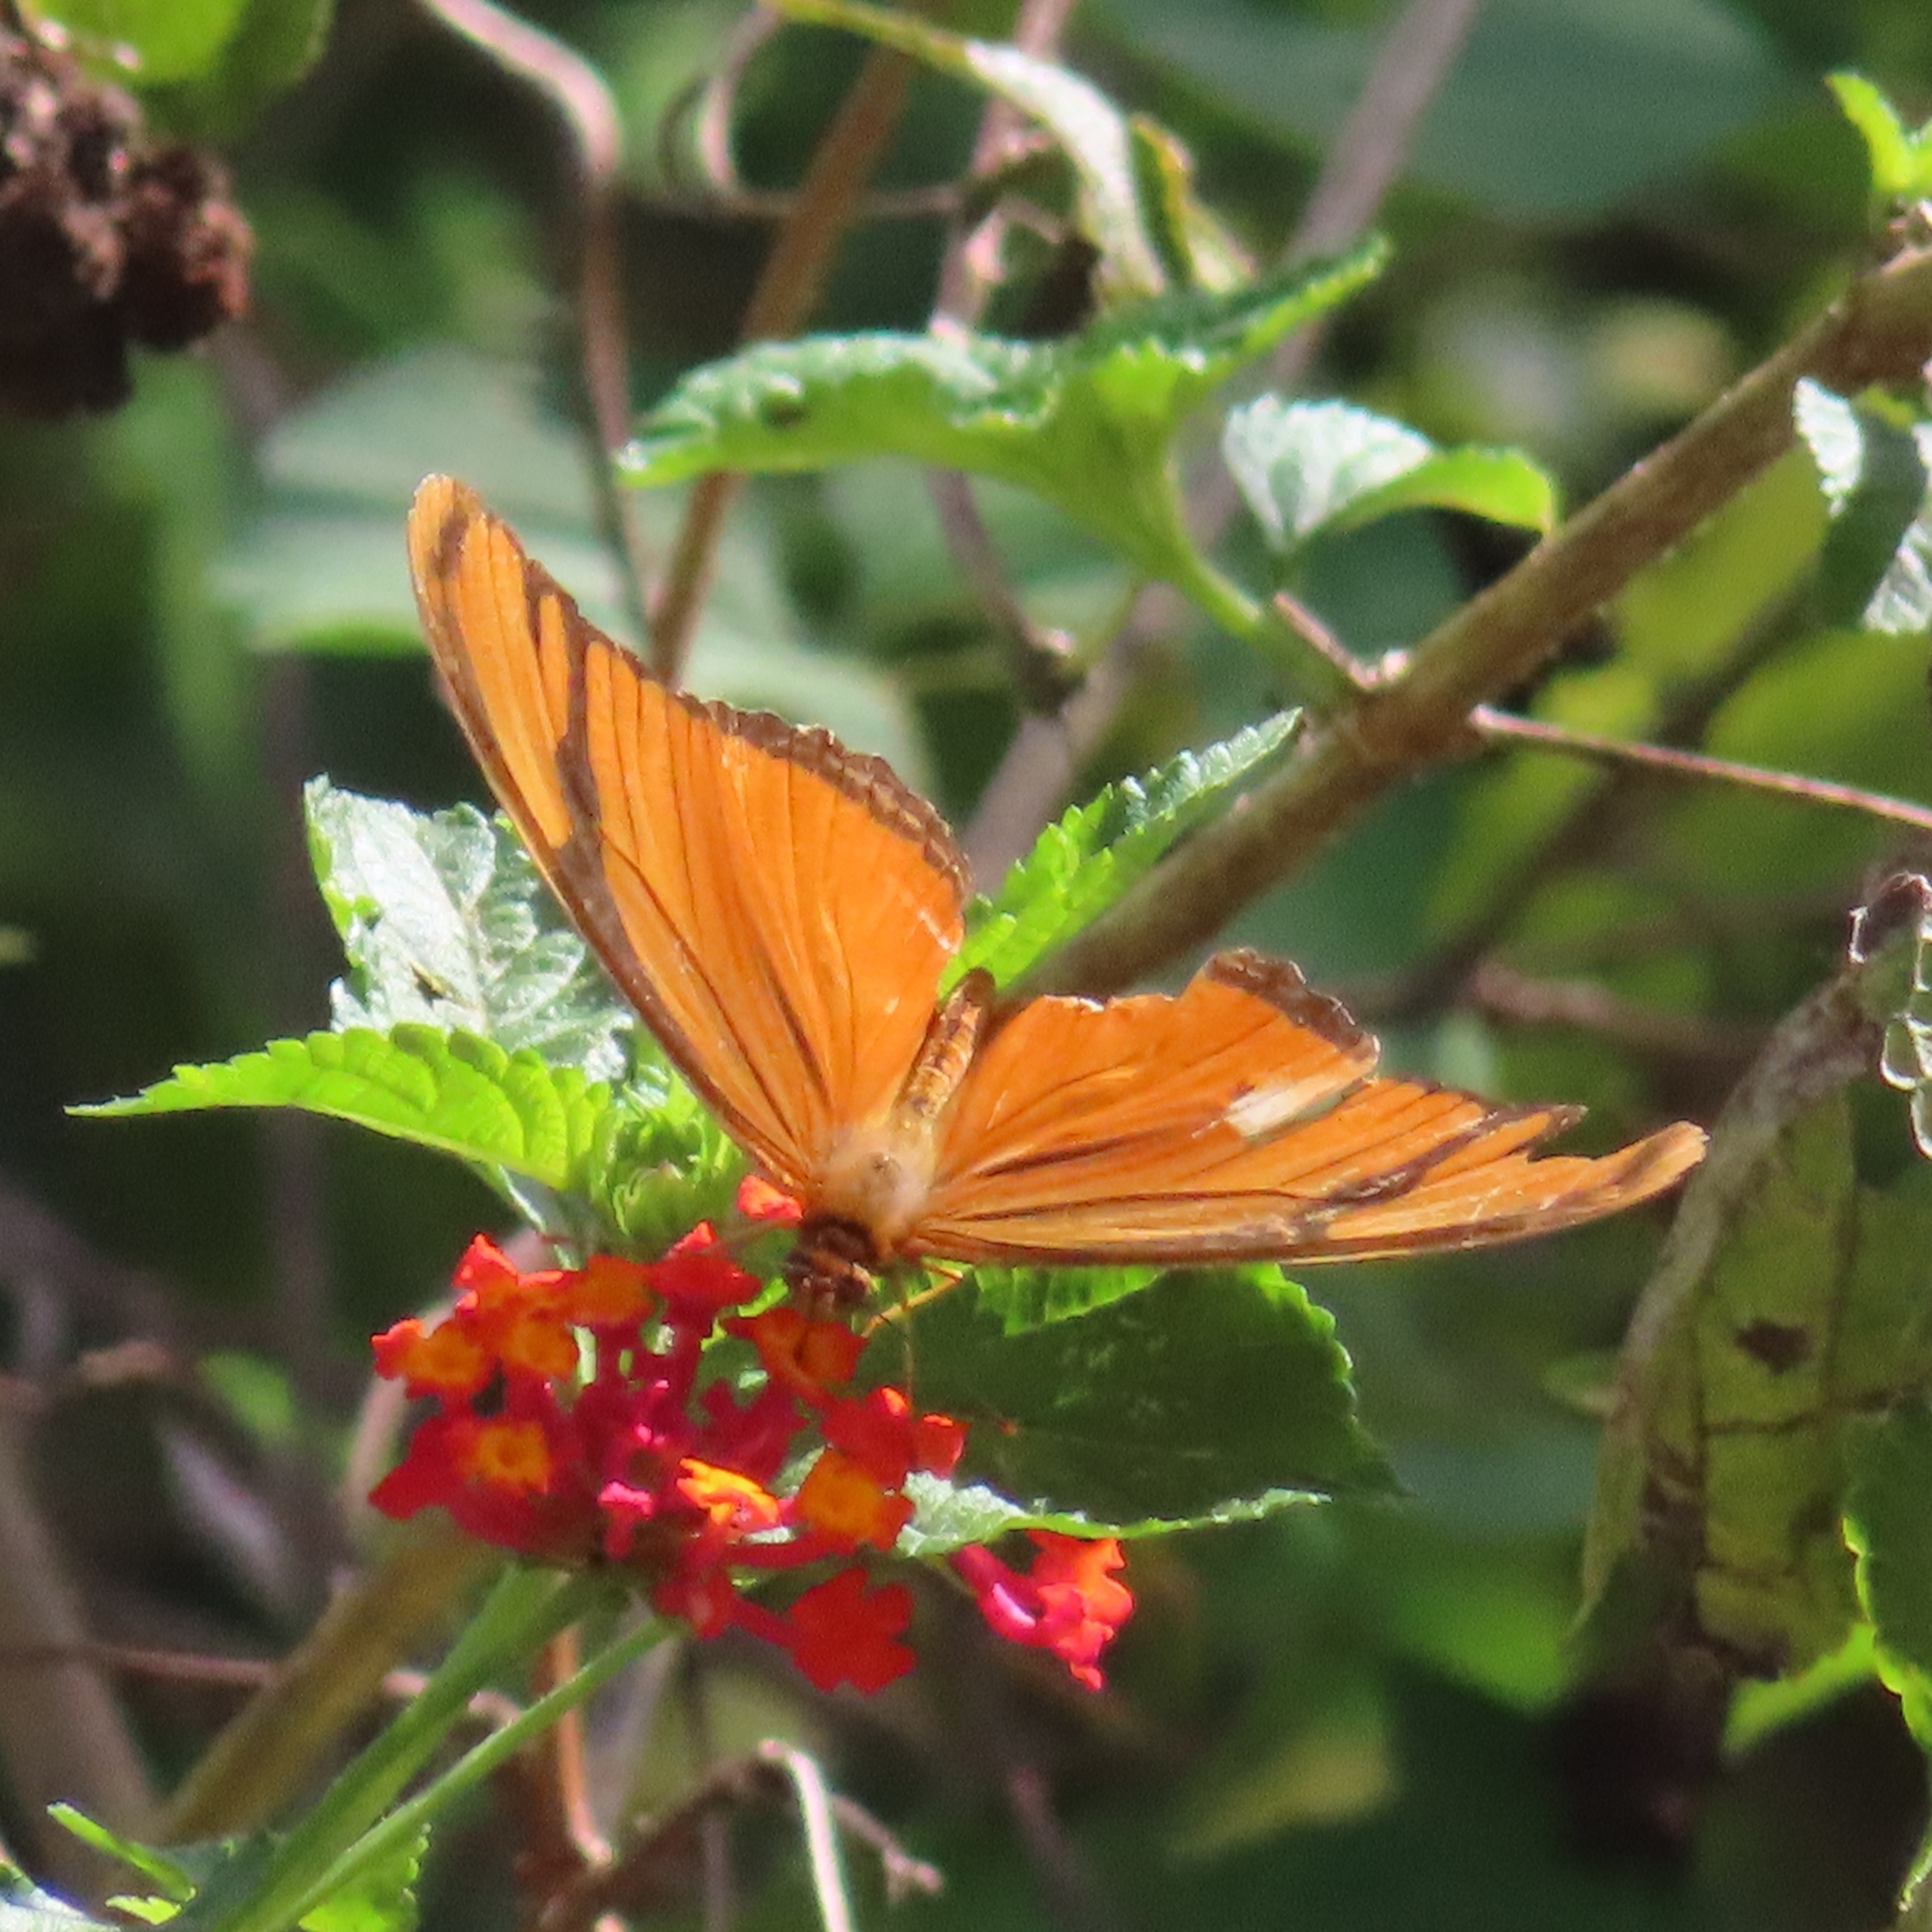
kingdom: Animalia
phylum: Arthropoda
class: Insecta
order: Lepidoptera
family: Nymphalidae
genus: Dryas
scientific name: Dryas iulia
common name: Flambeau
